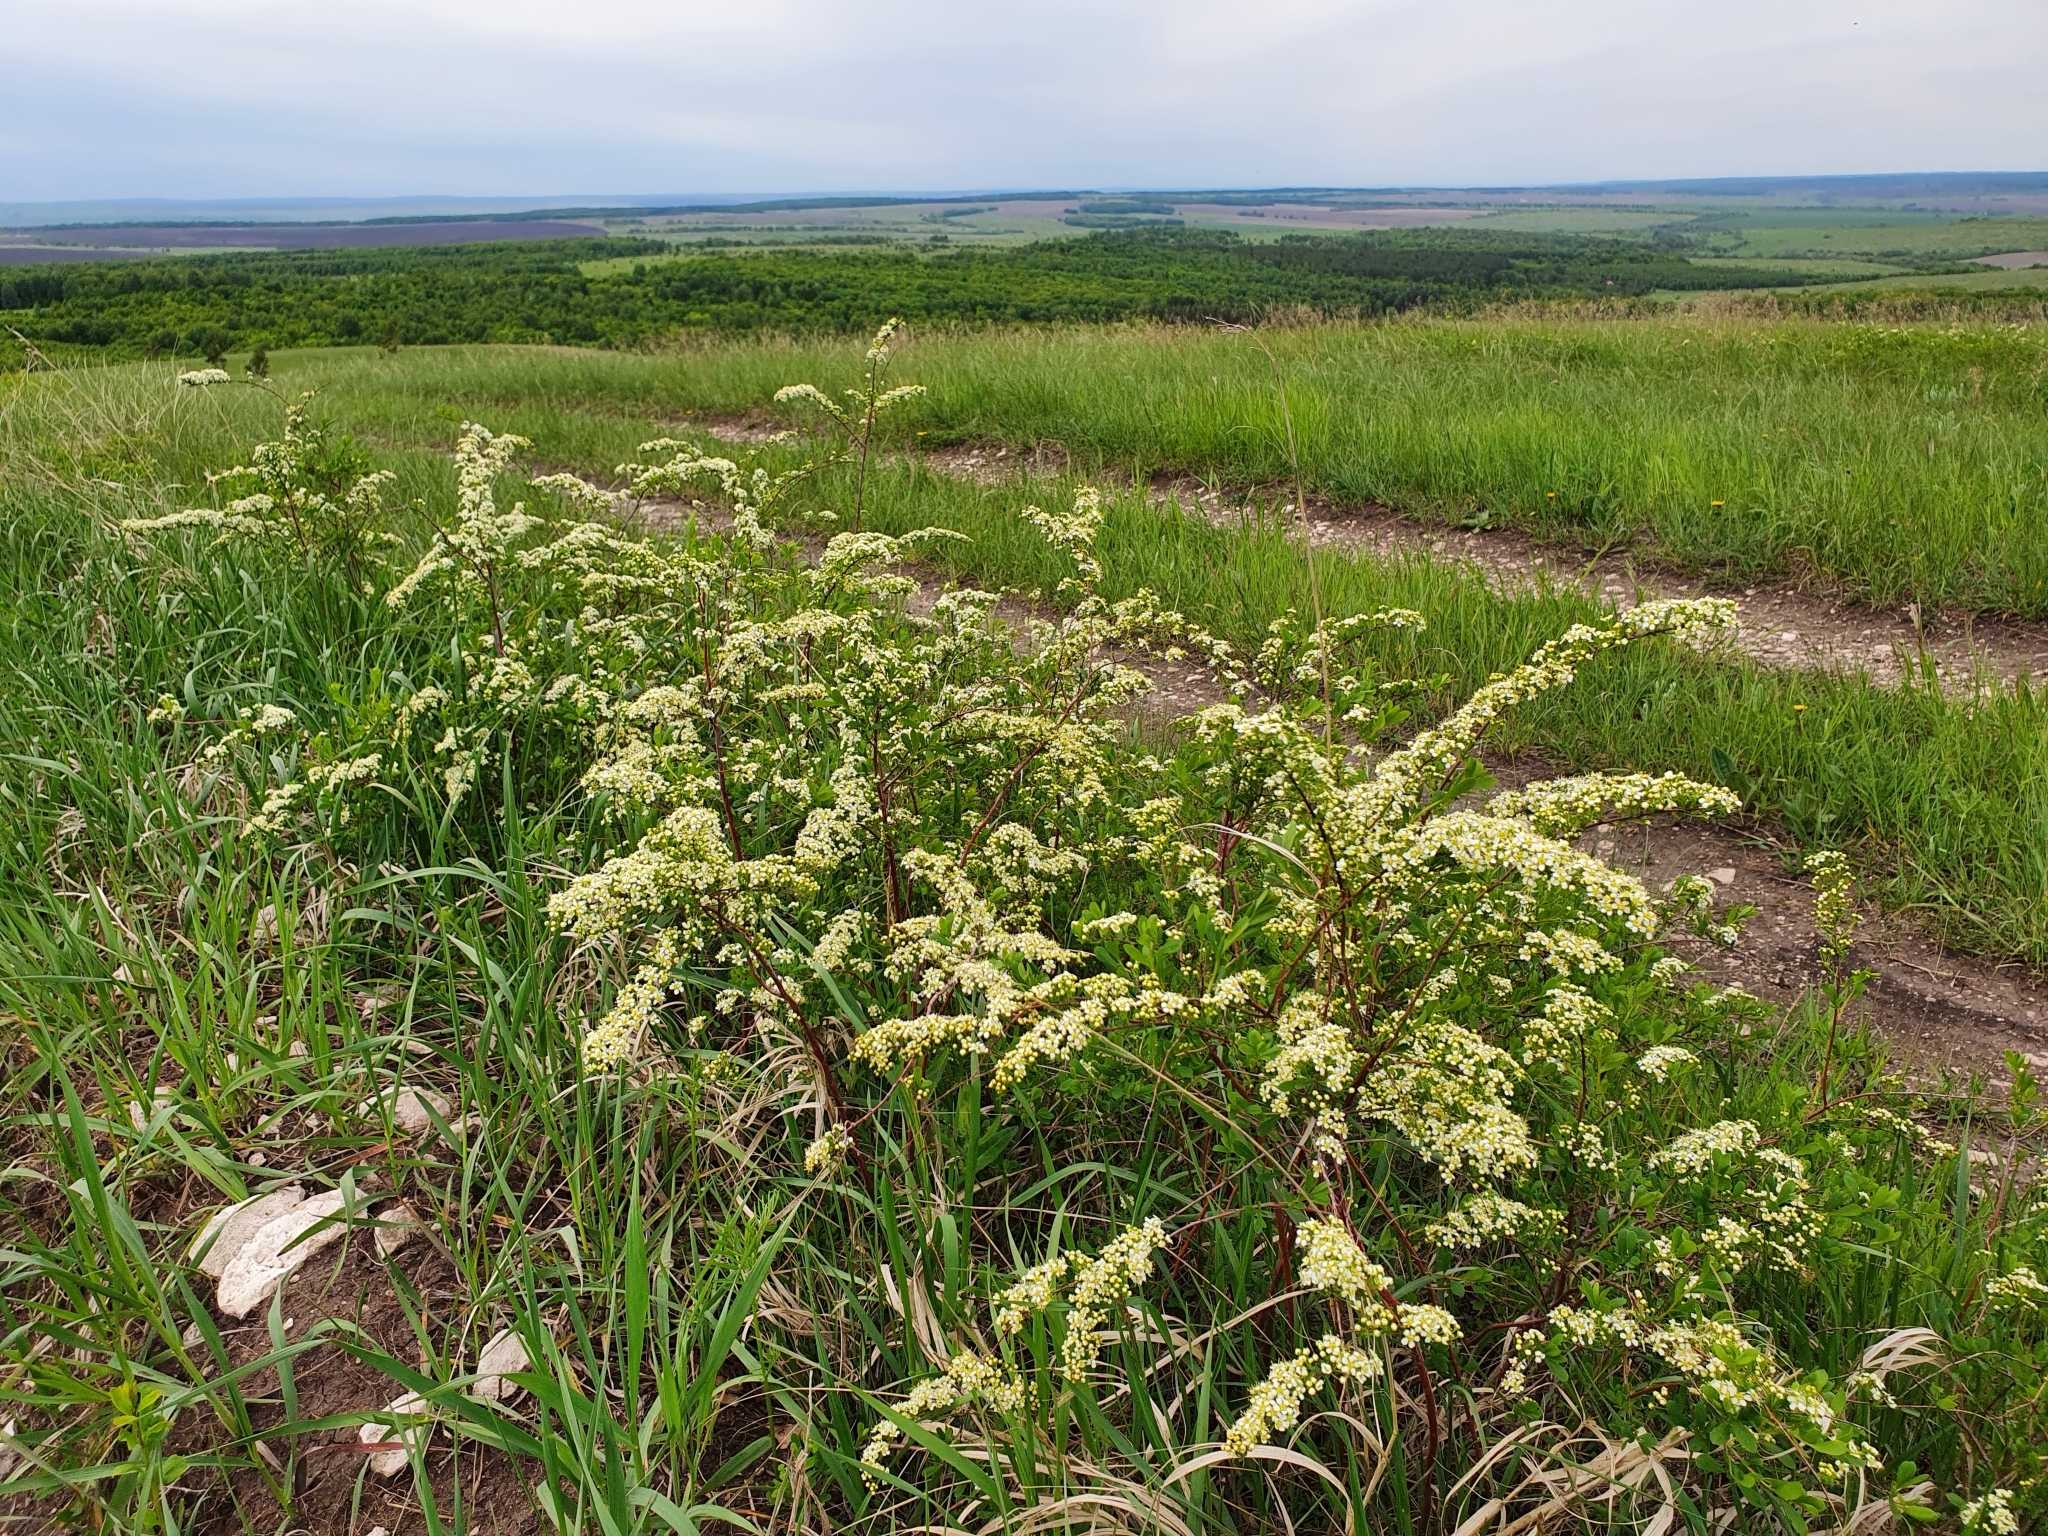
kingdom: Plantae
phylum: Tracheophyta
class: Magnoliopsida
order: Rosales
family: Rosaceae
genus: Spiraea
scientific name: Spiraea crenata
